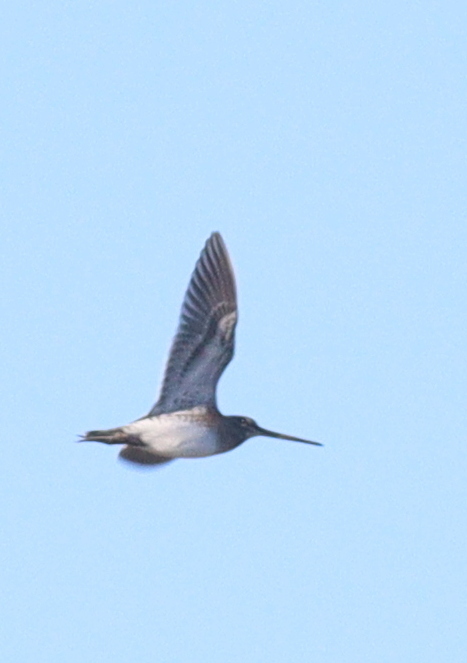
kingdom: Animalia
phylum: Chordata
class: Aves
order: Charadriiformes
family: Scolopacidae
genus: Gallinago
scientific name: Gallinago gallinago
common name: Common snipe
